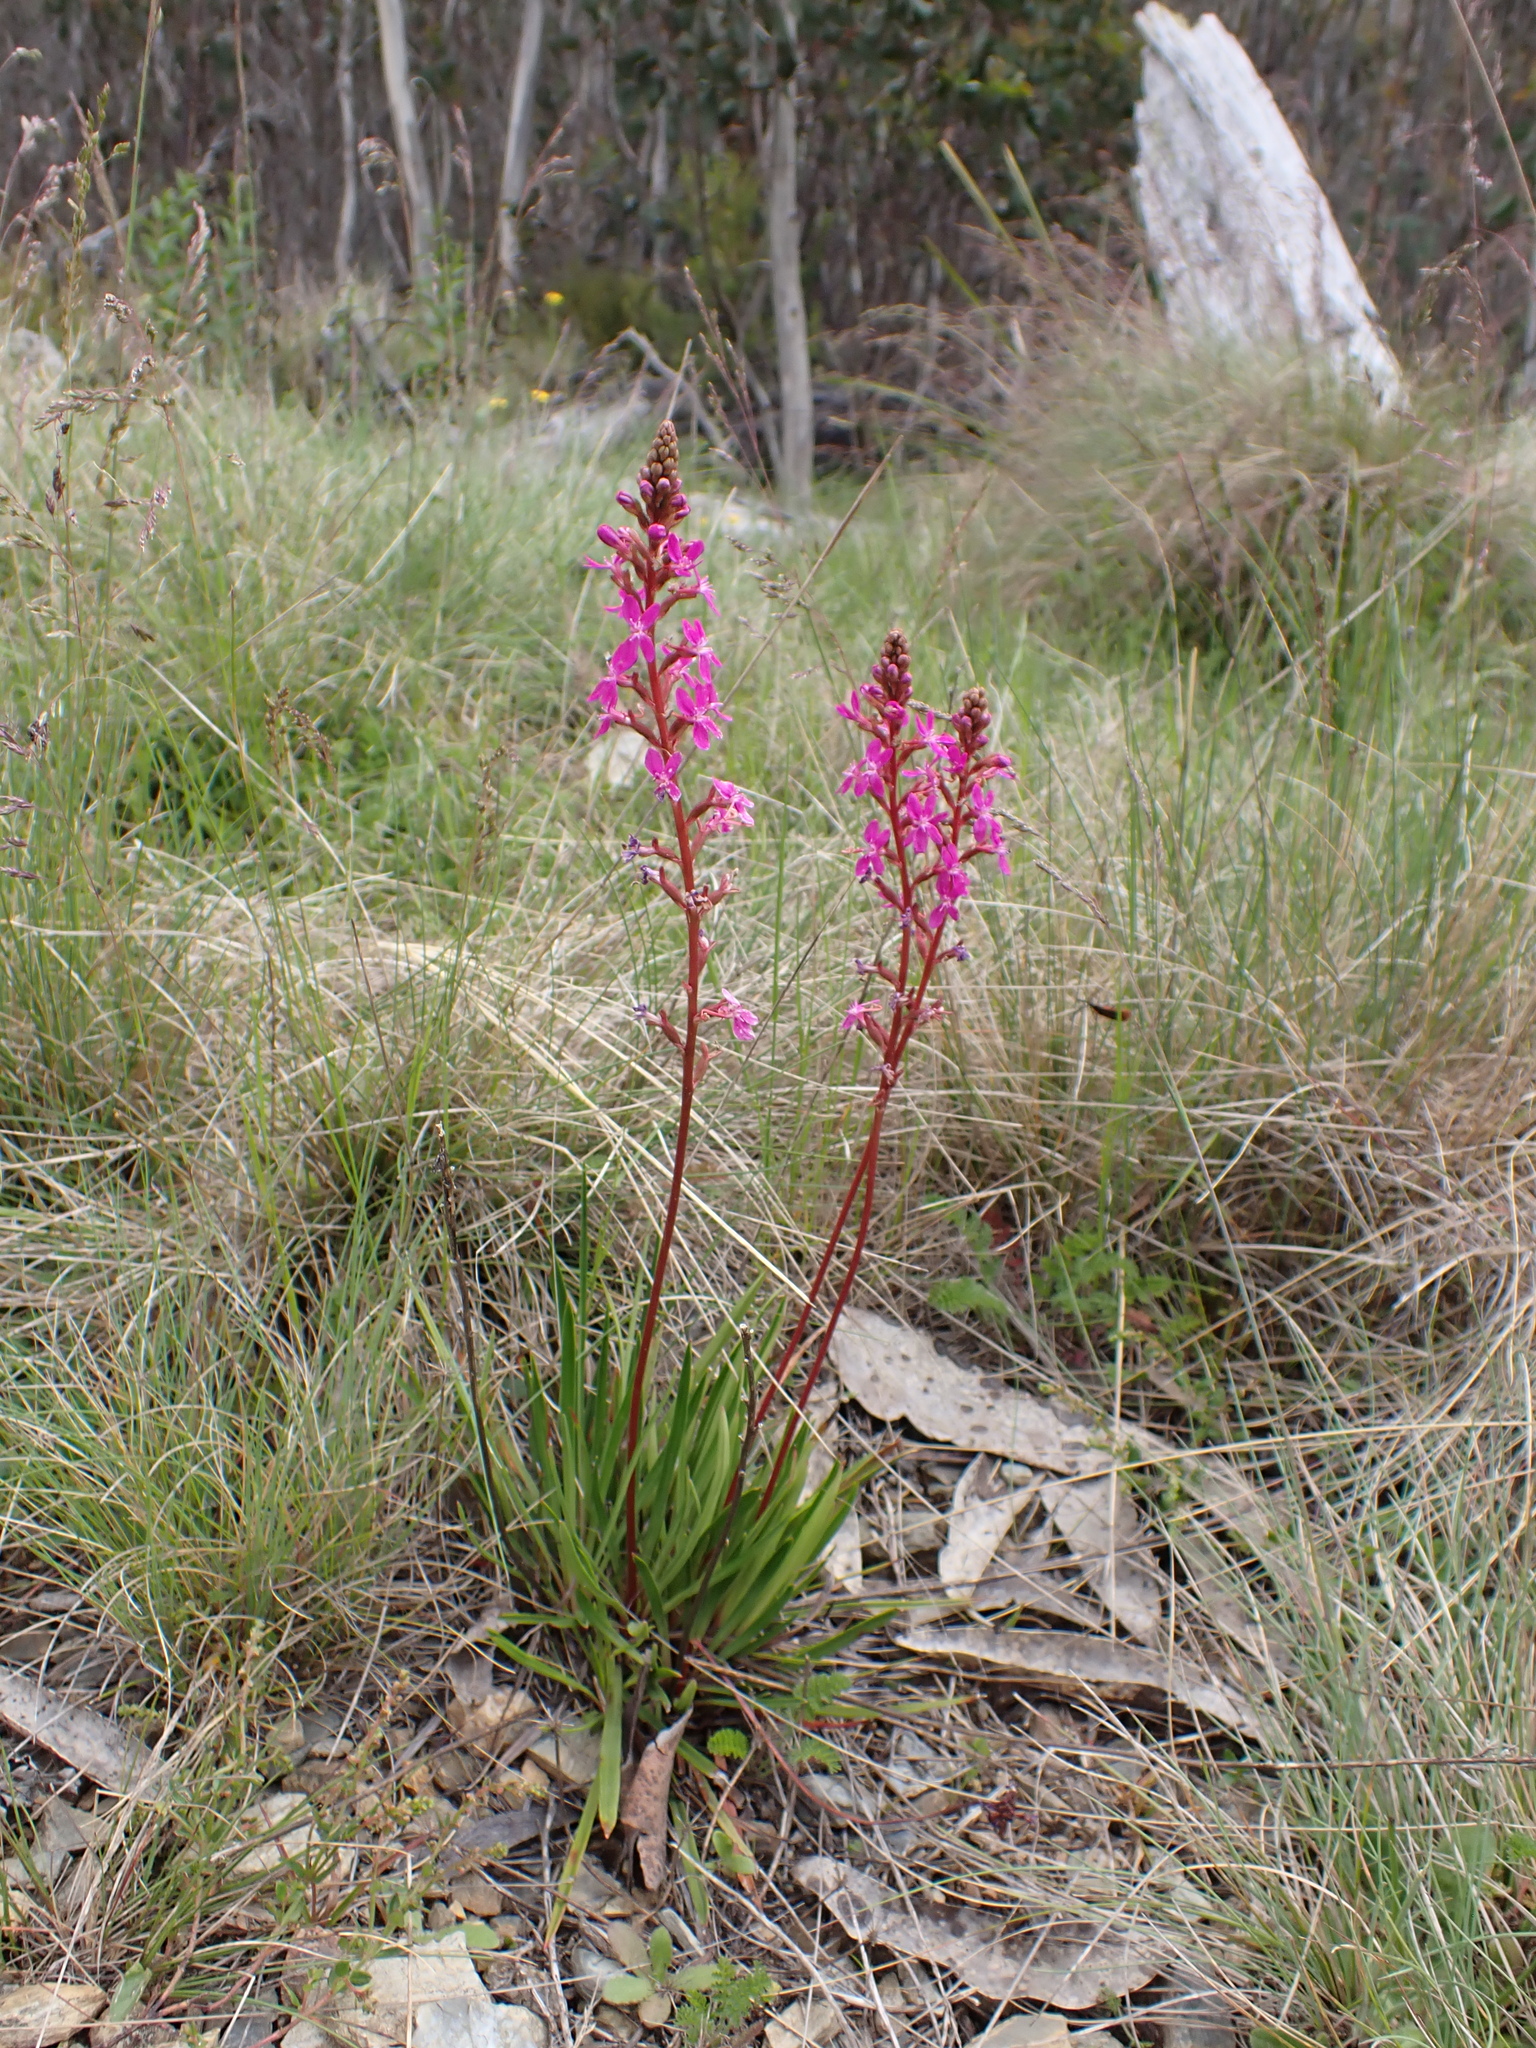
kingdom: Plantae
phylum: Tracheophyta
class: Magnoliopsida
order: Asterales
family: Stylidiaceae
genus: Stylidium
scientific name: Stylidium armeria
